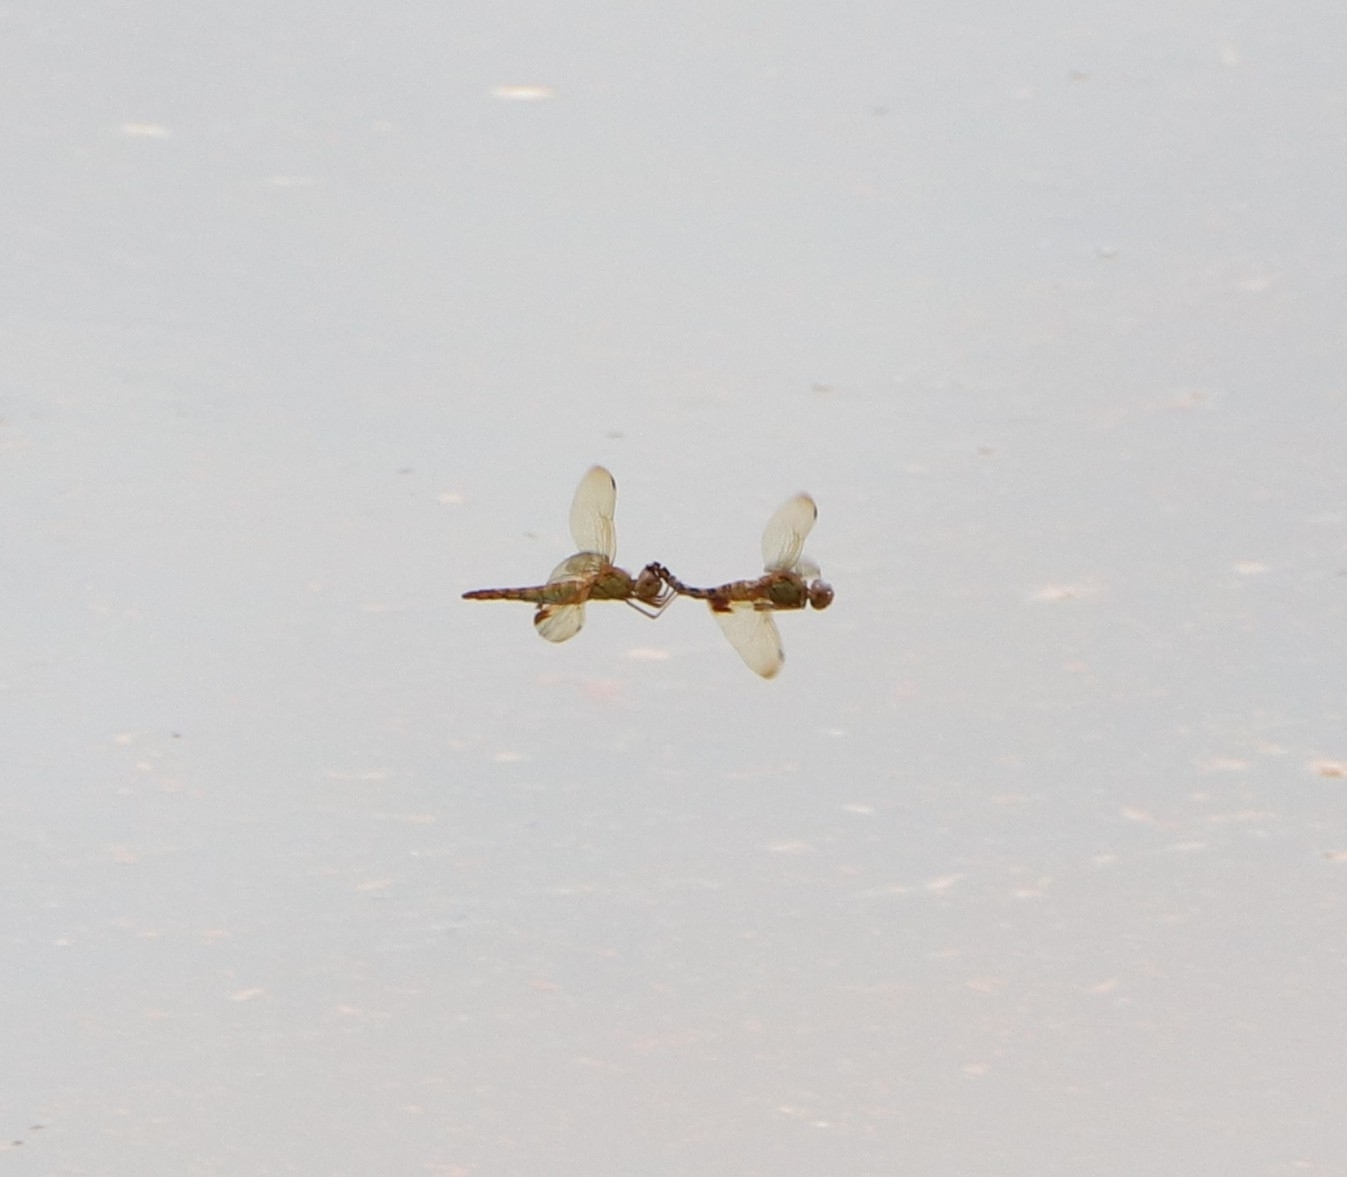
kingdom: Animalia
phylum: Arthropoda
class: Insecta
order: Odonata
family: Libellulidae
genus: Hydrobasileus
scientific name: Hydrobasileus croceus
